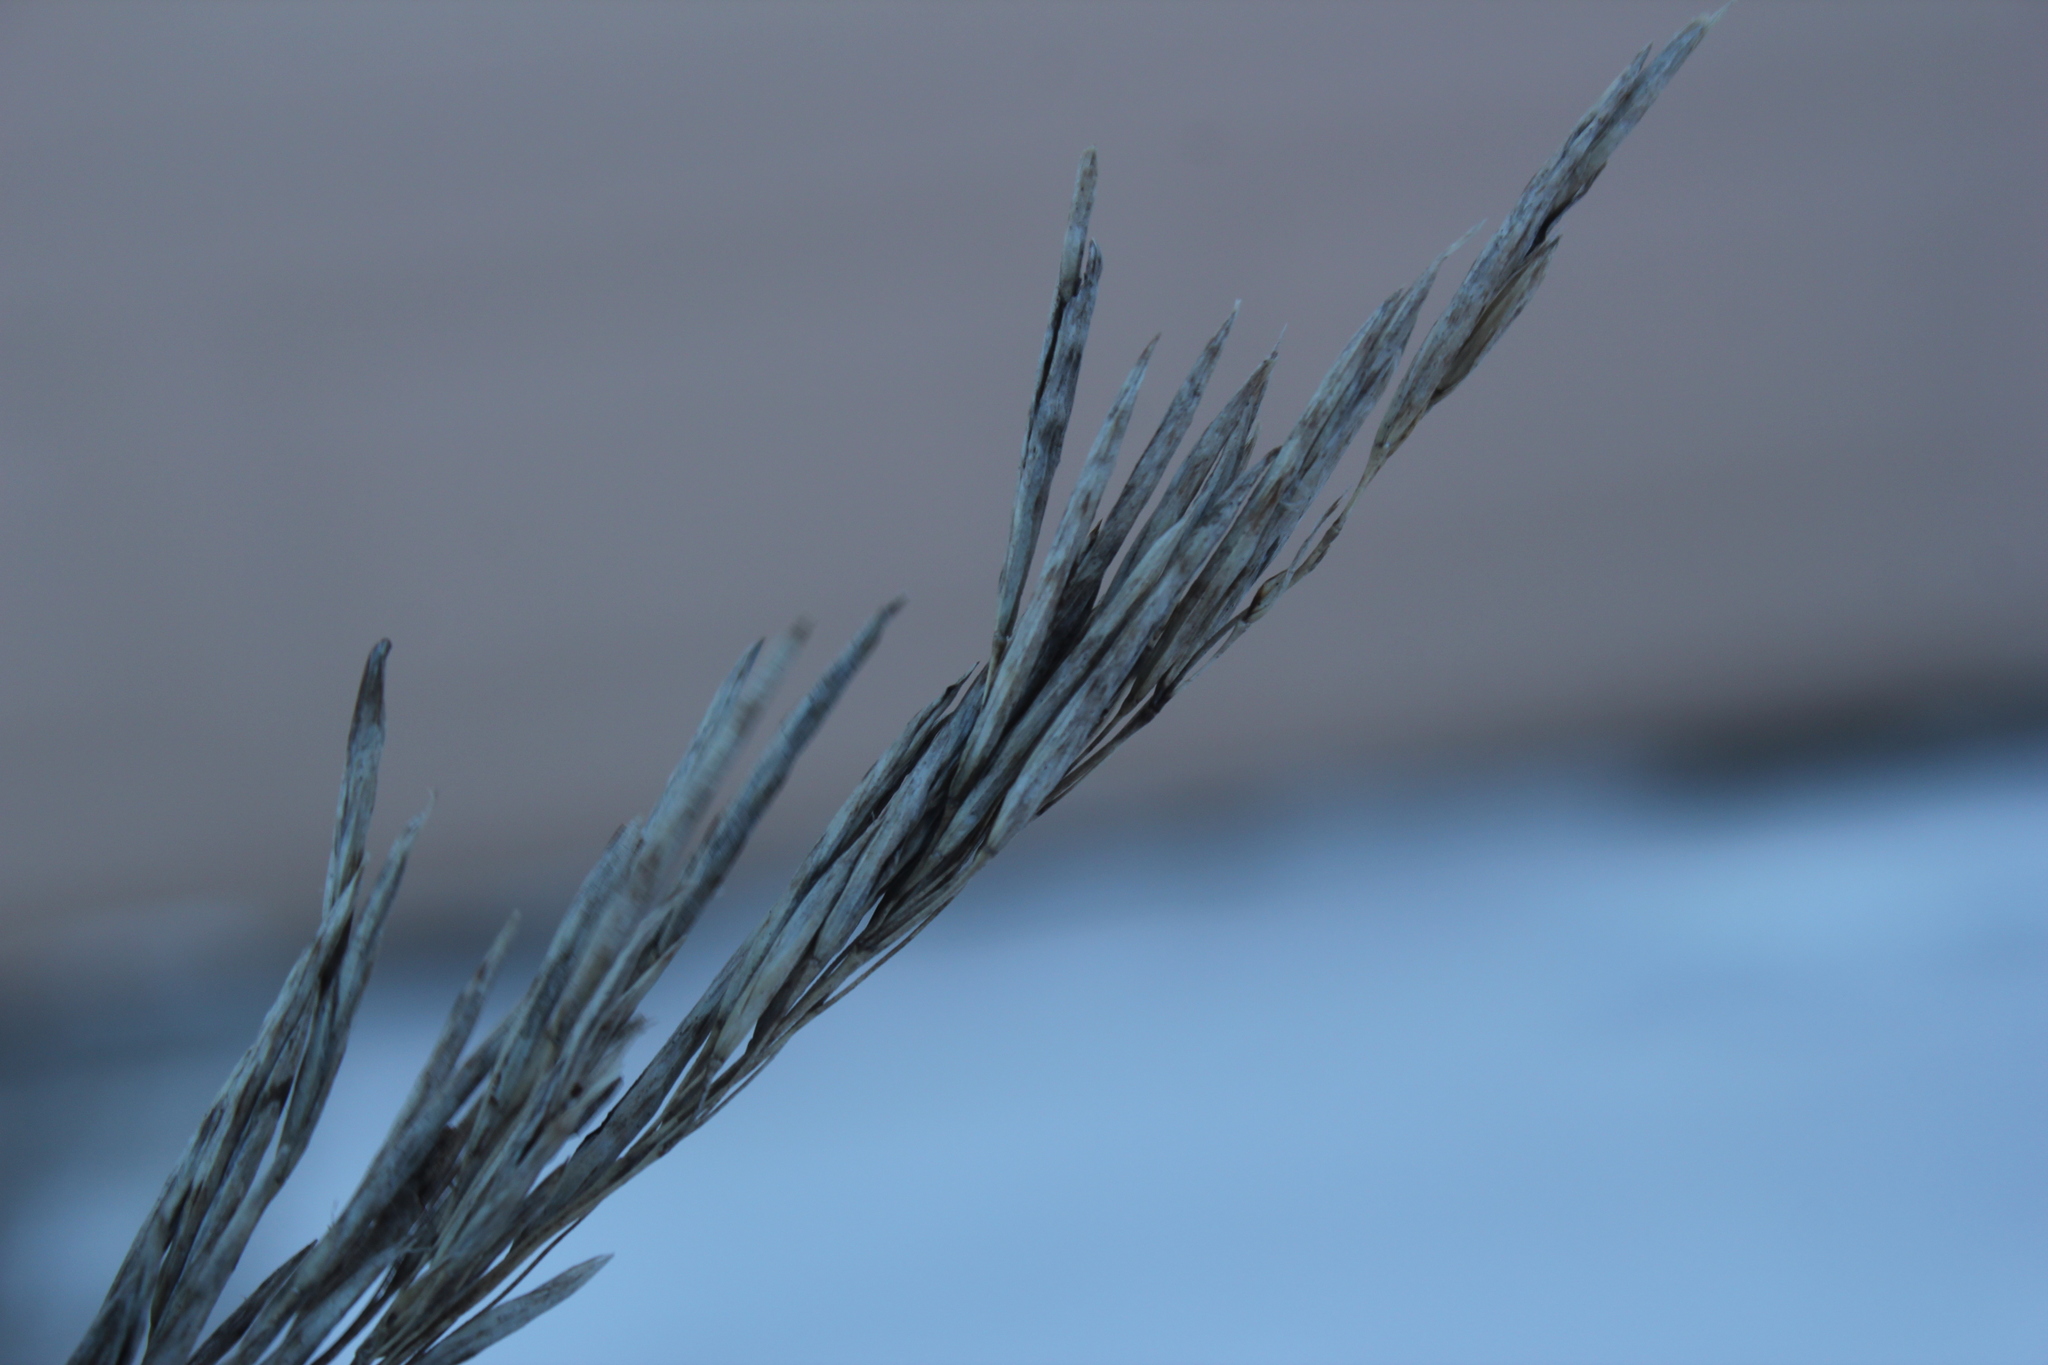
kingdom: Plantae
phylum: Tracheophyta
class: Liliopsida
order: Poales
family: Poaceae
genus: Bromus
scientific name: Bromus inermis
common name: Smooth brome
